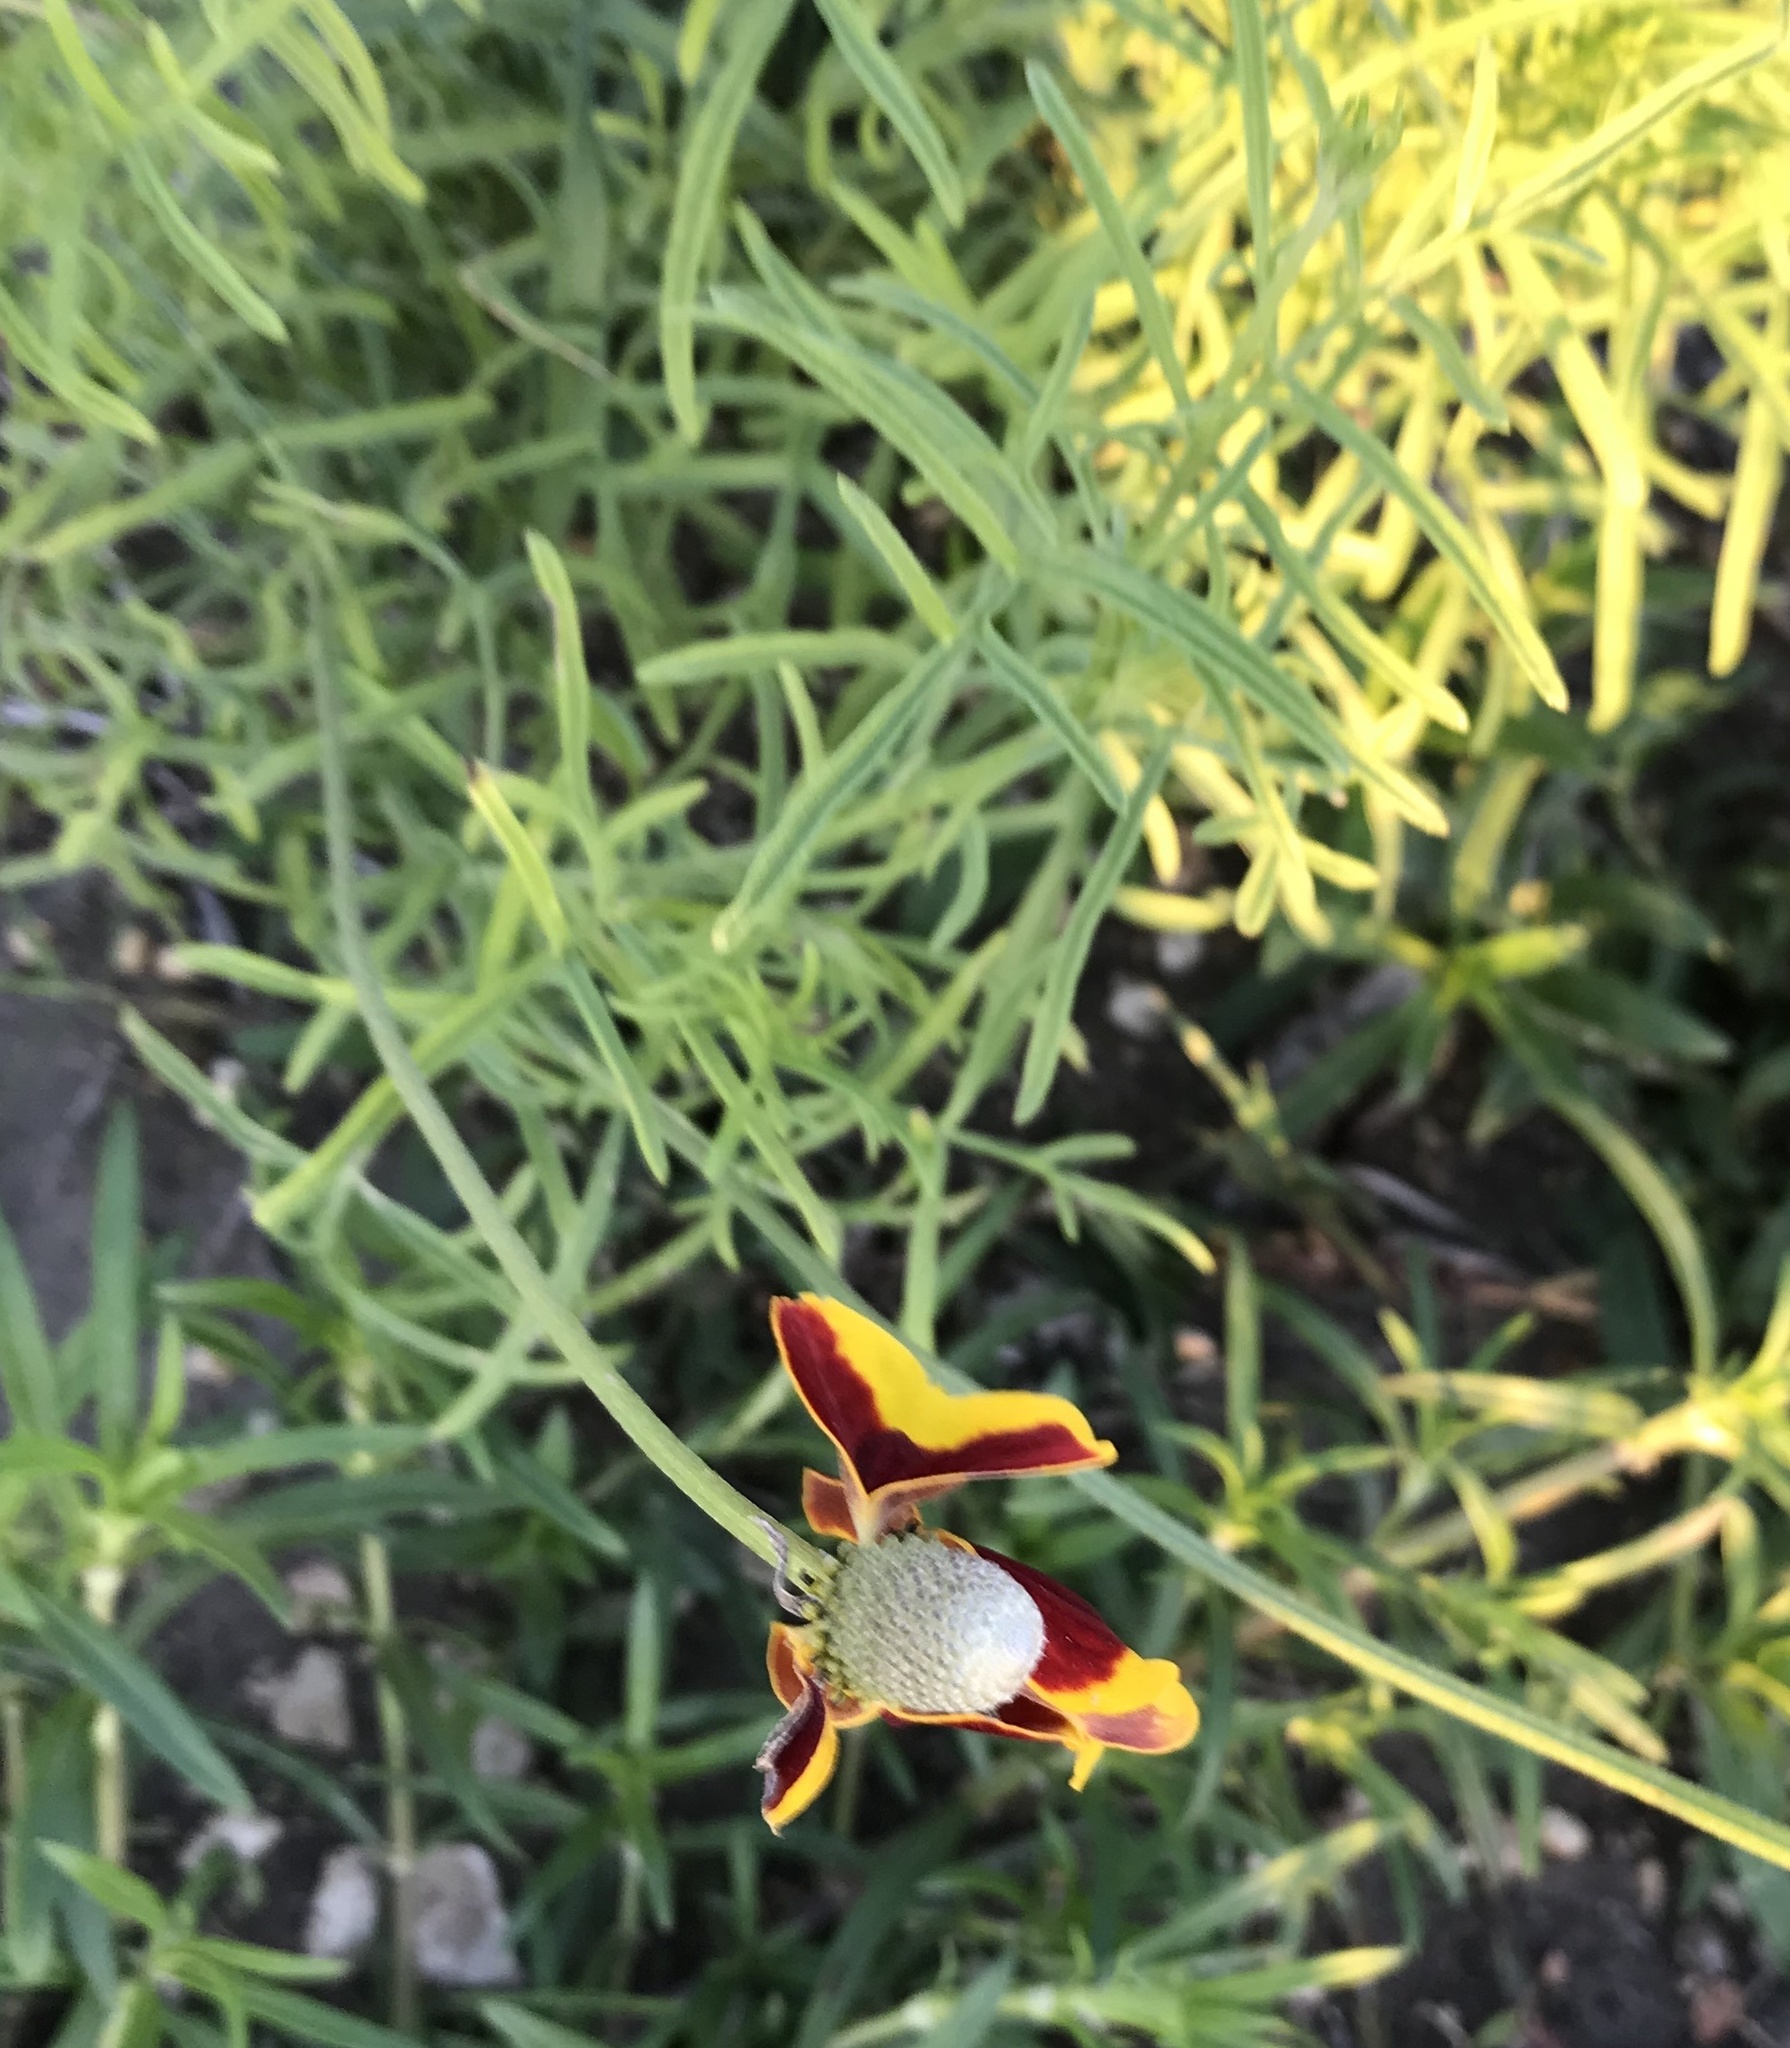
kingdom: Plantae
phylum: Tracheophyta
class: Magnoliopsida
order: Asterales
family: Asteraceae
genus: Ratibida
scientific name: Ratibida columnifera
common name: Prairie coneflower
